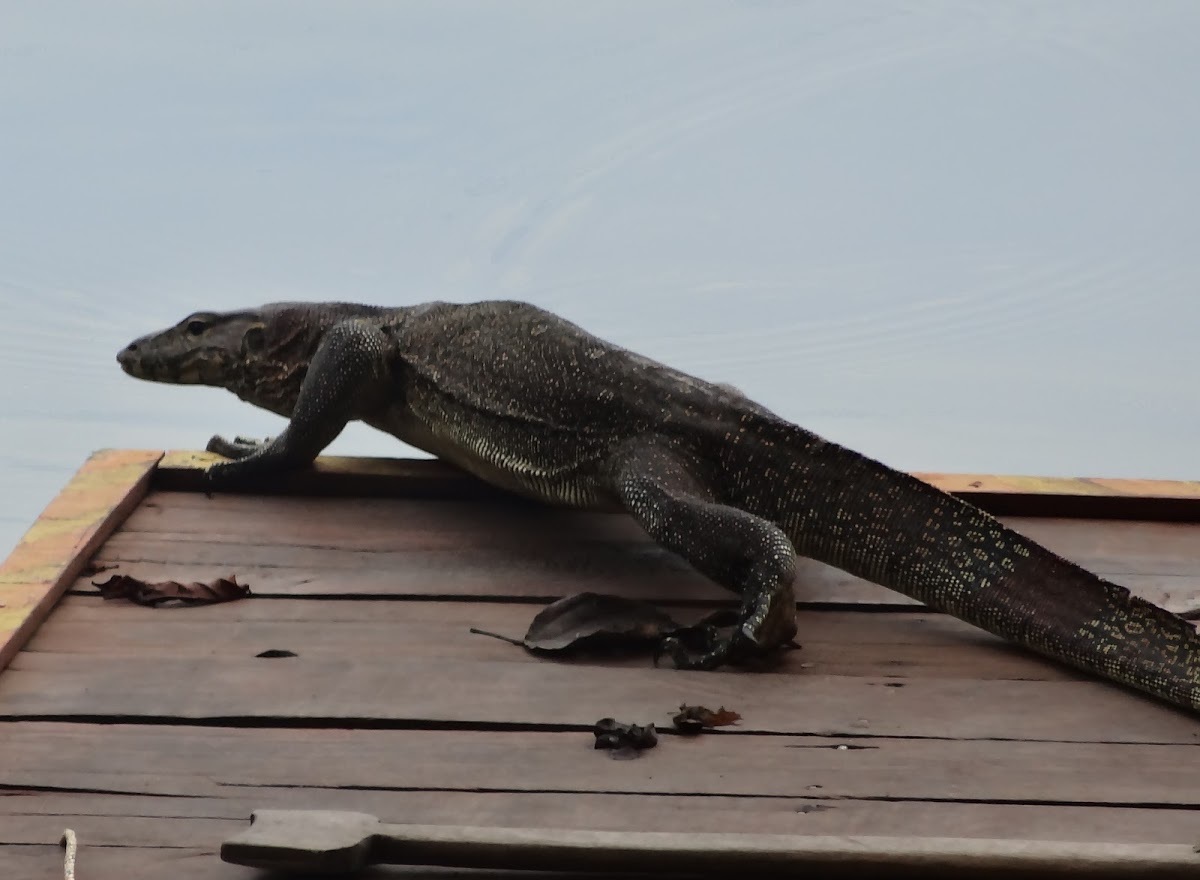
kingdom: Animalia
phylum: Chordata
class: Squamata
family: Varanidae
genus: Varanus
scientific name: Varanus salvator
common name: Common water monitor
